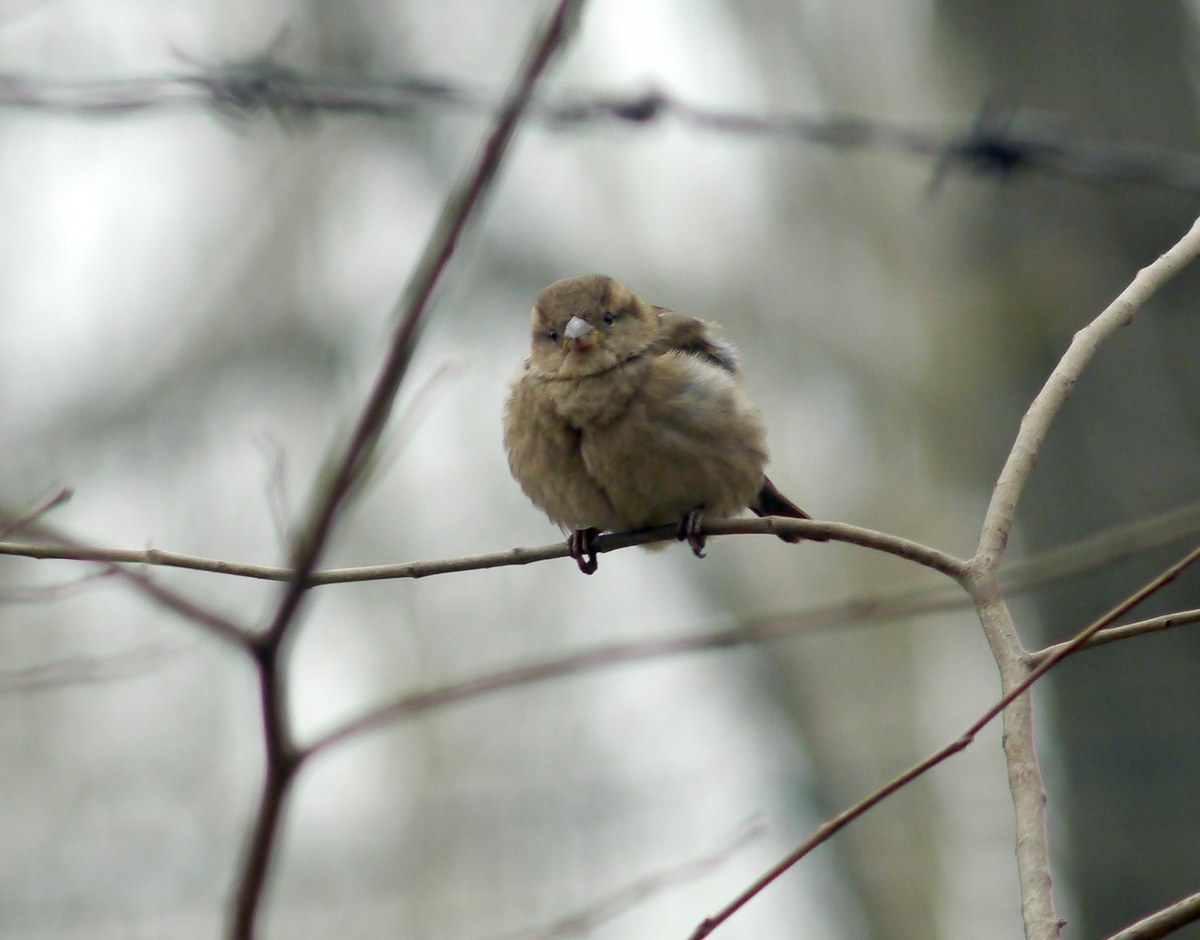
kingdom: Animalia
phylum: Chordata
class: Aves
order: Passeriformes
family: Passeridae
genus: Passer
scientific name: Passer domesticus
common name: House sparrow
